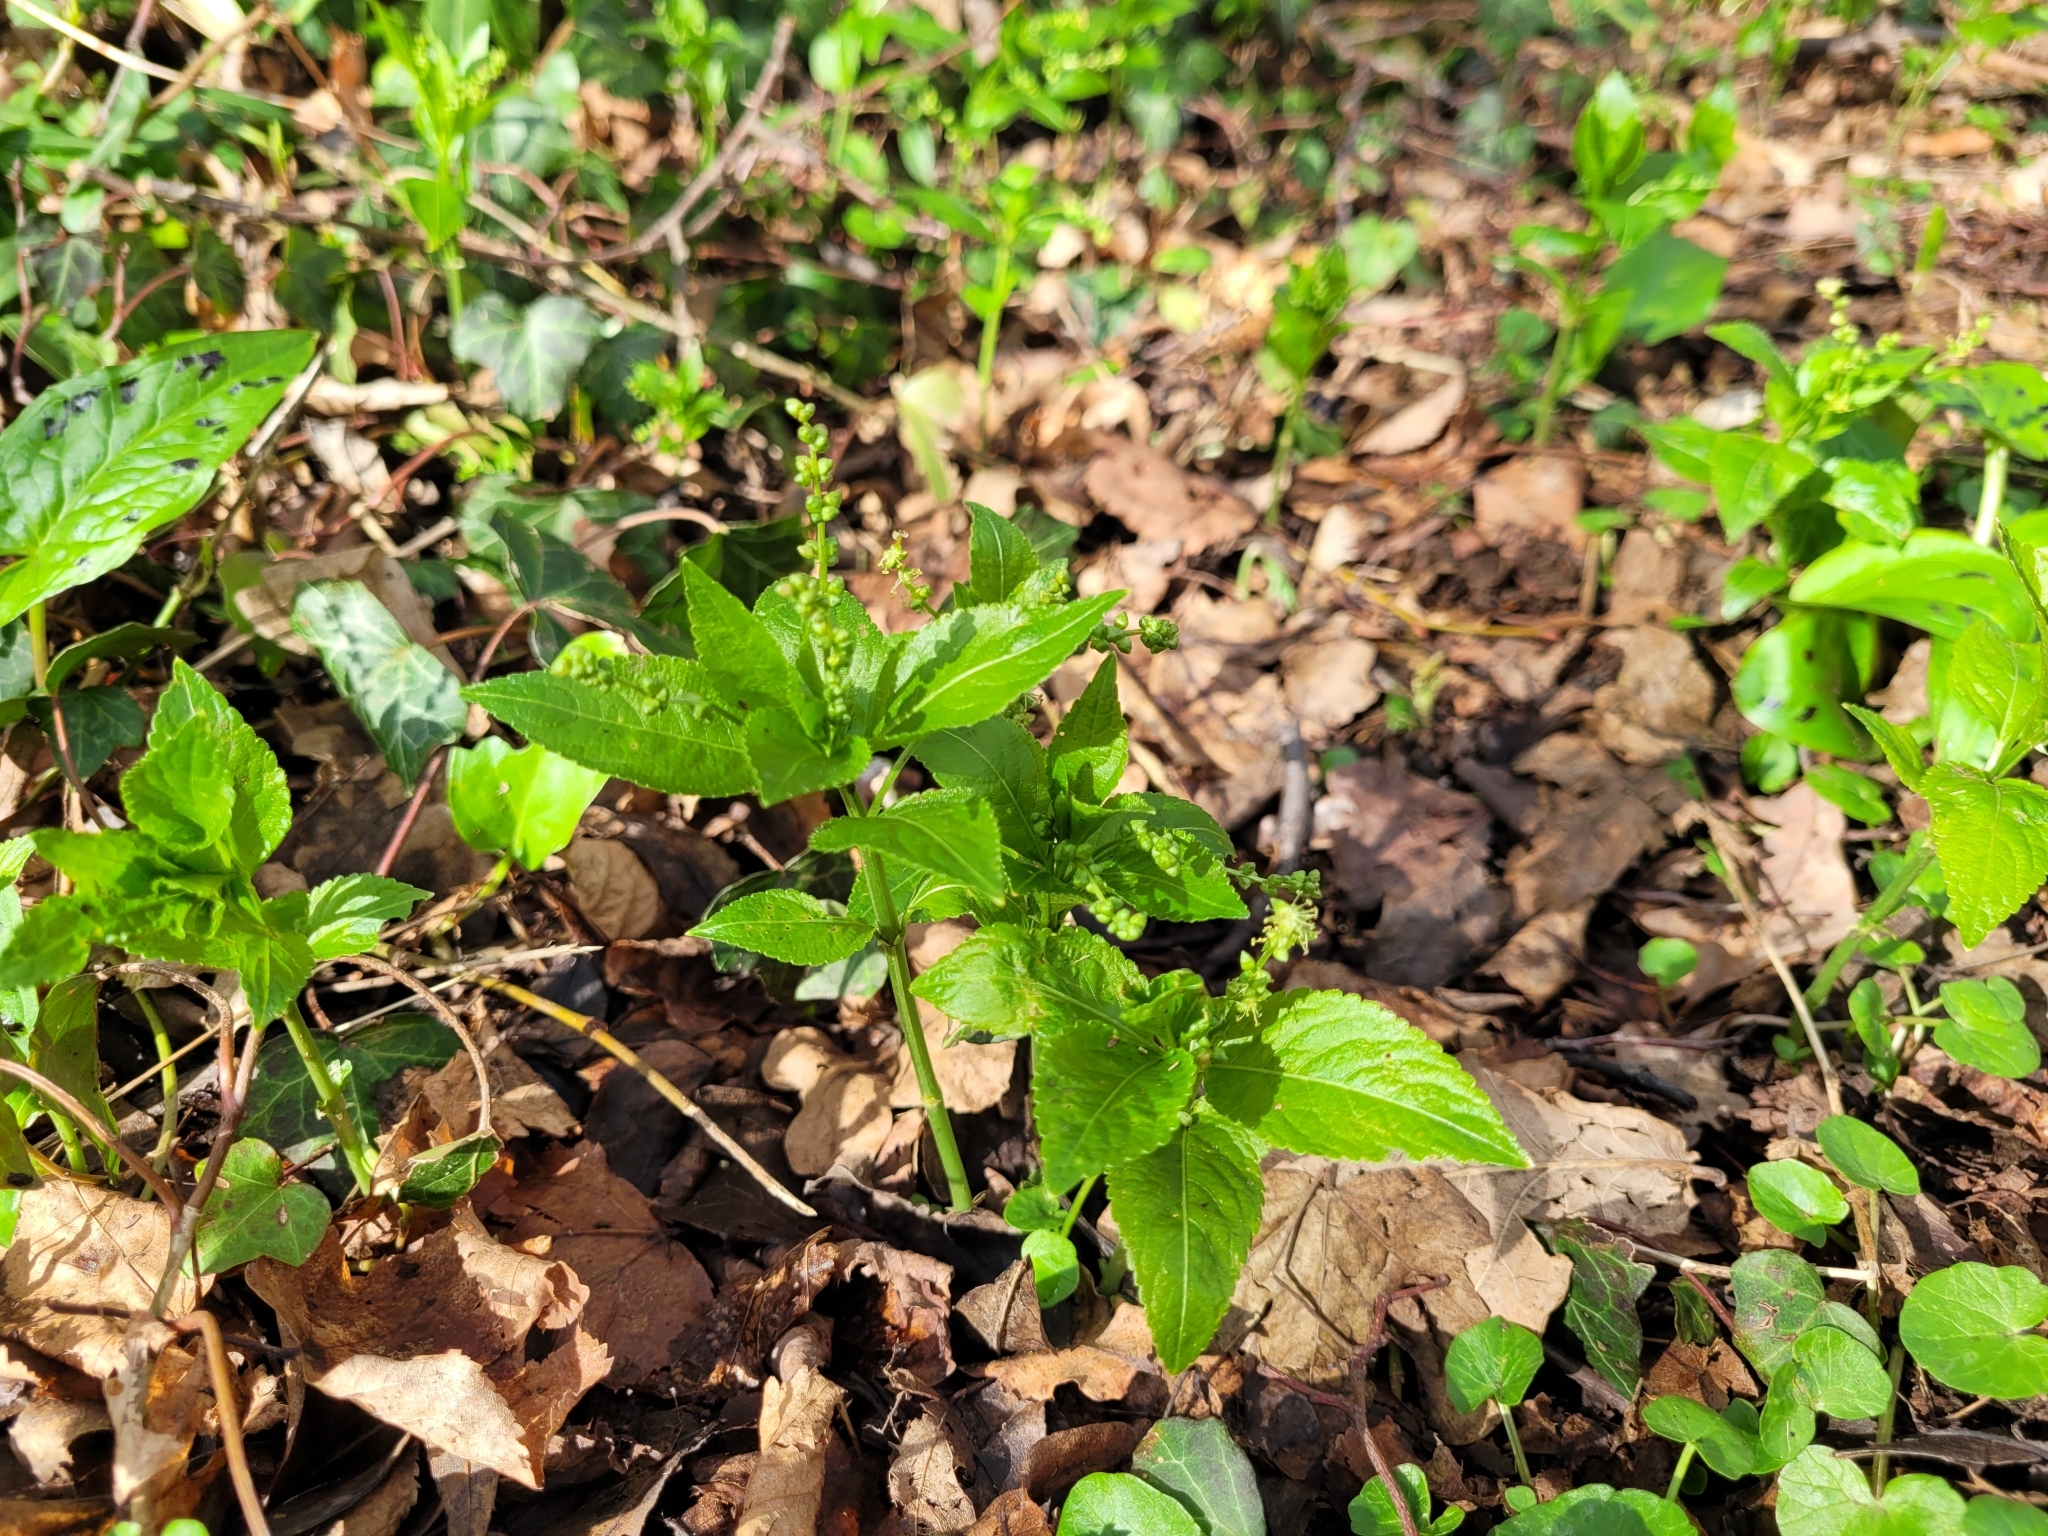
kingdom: Plantae
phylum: Tracheophyta
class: Magnoliopsida
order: Malpighiales
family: Euphorbiaceae
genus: Mercurialis
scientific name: Mercurialis perennis
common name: Dog mercury
